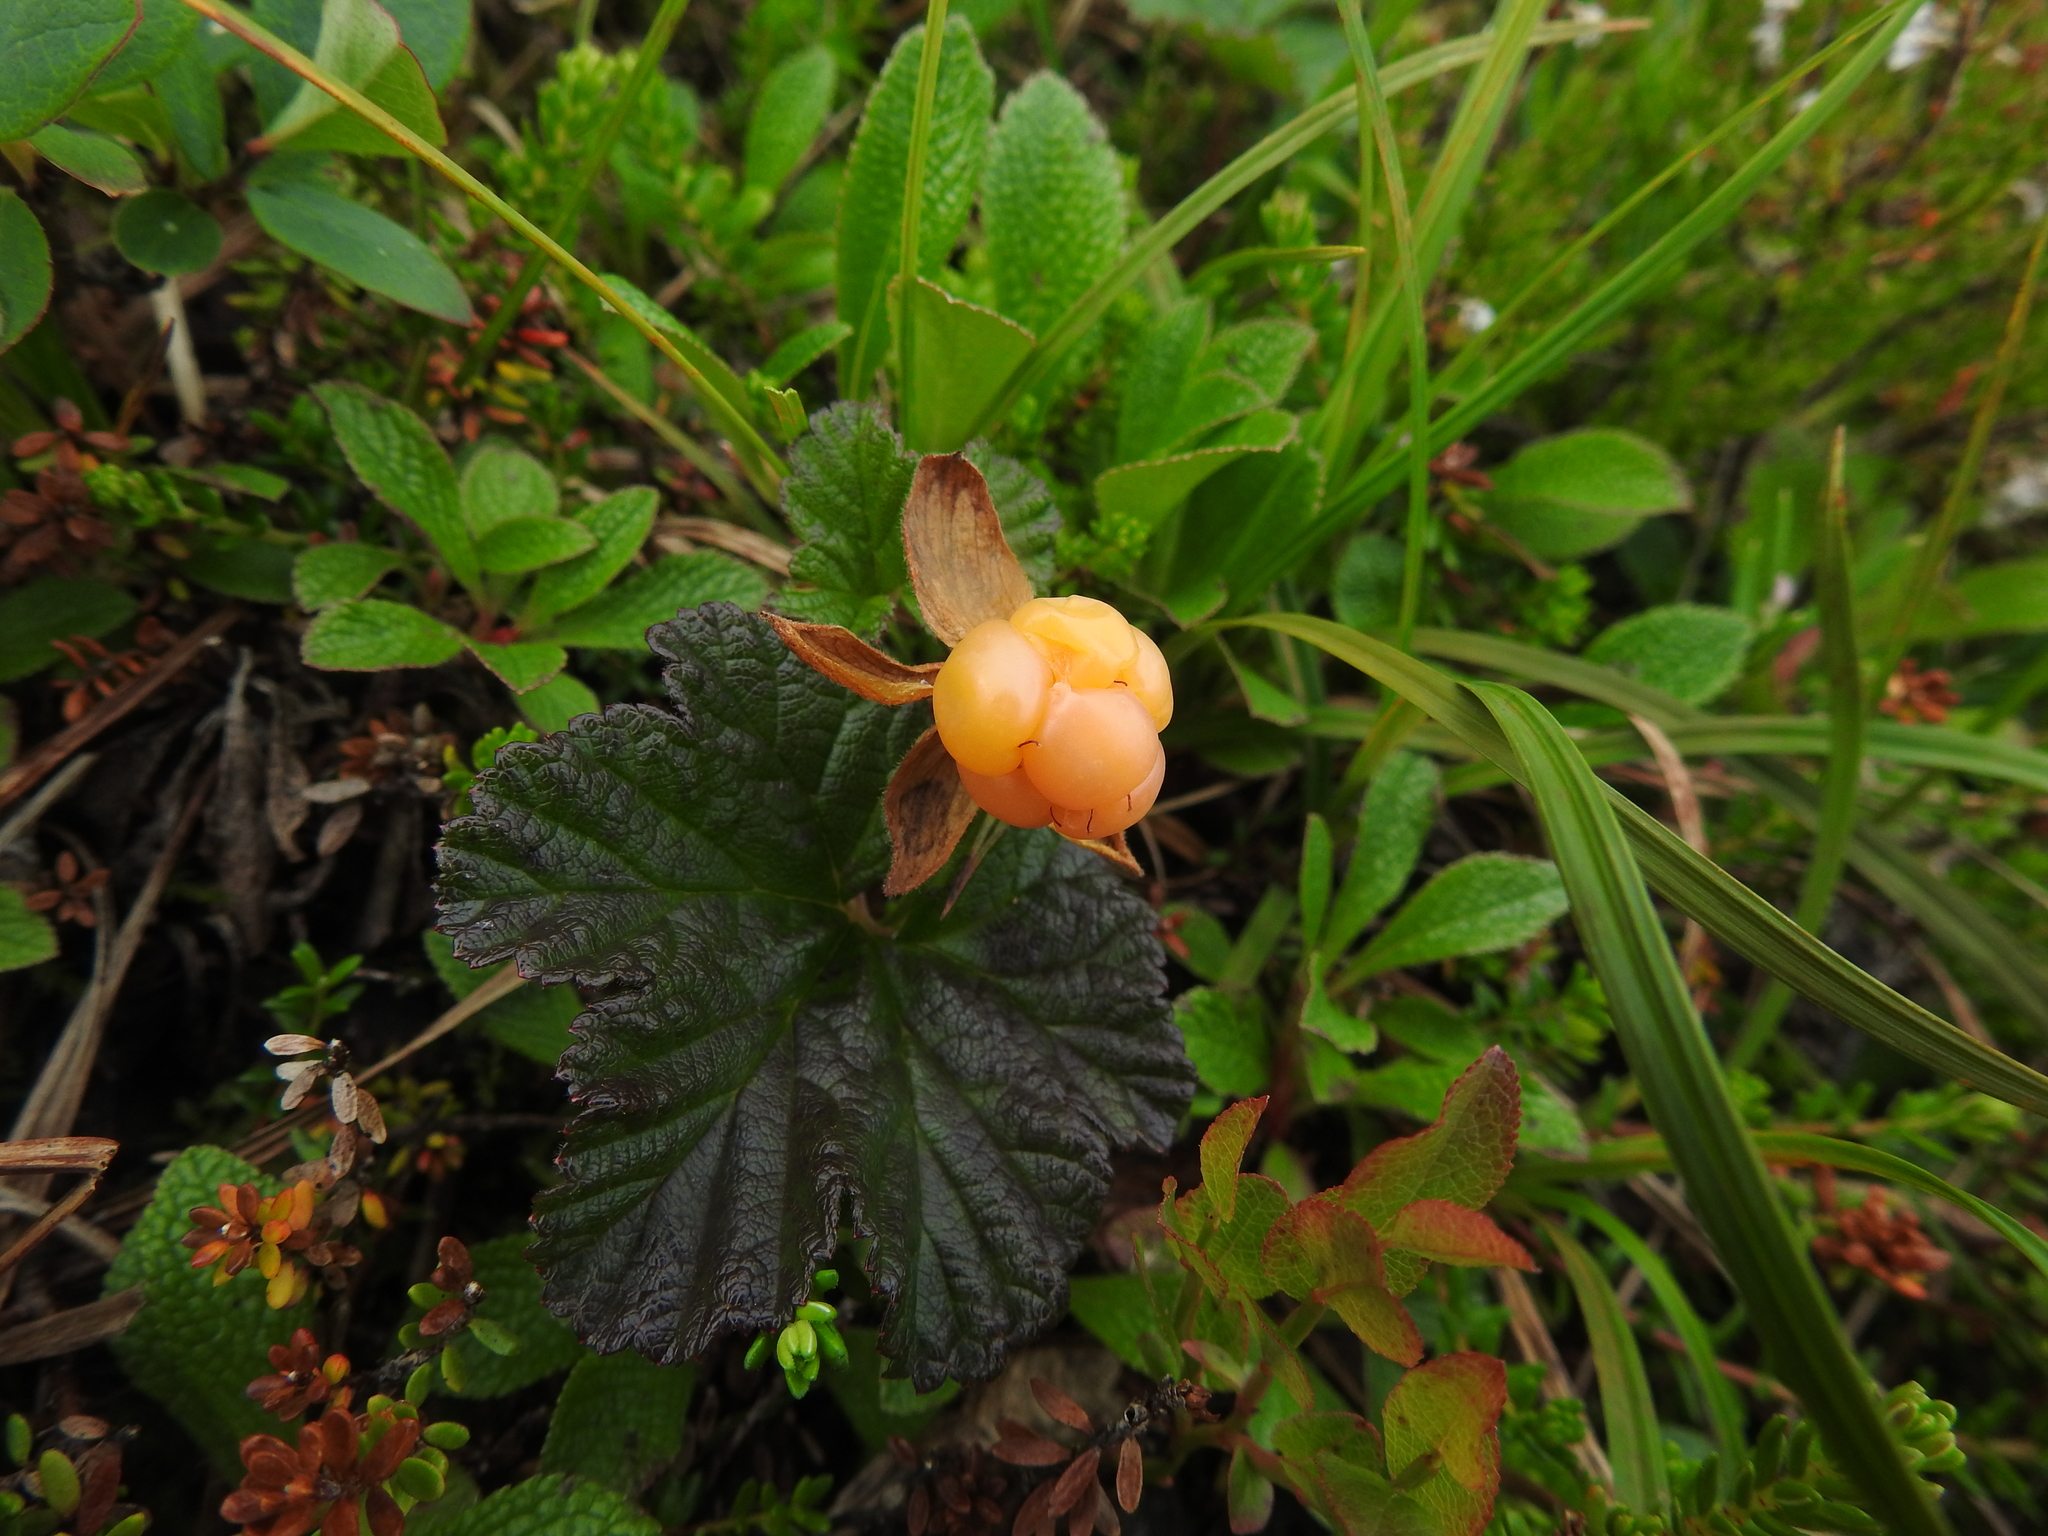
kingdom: Plantae
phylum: Tracheophyta
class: Magnoliopsida
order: Rosales
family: Rosaceae
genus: Rubus
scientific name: Rubus chamaemorus
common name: Cloudberry
